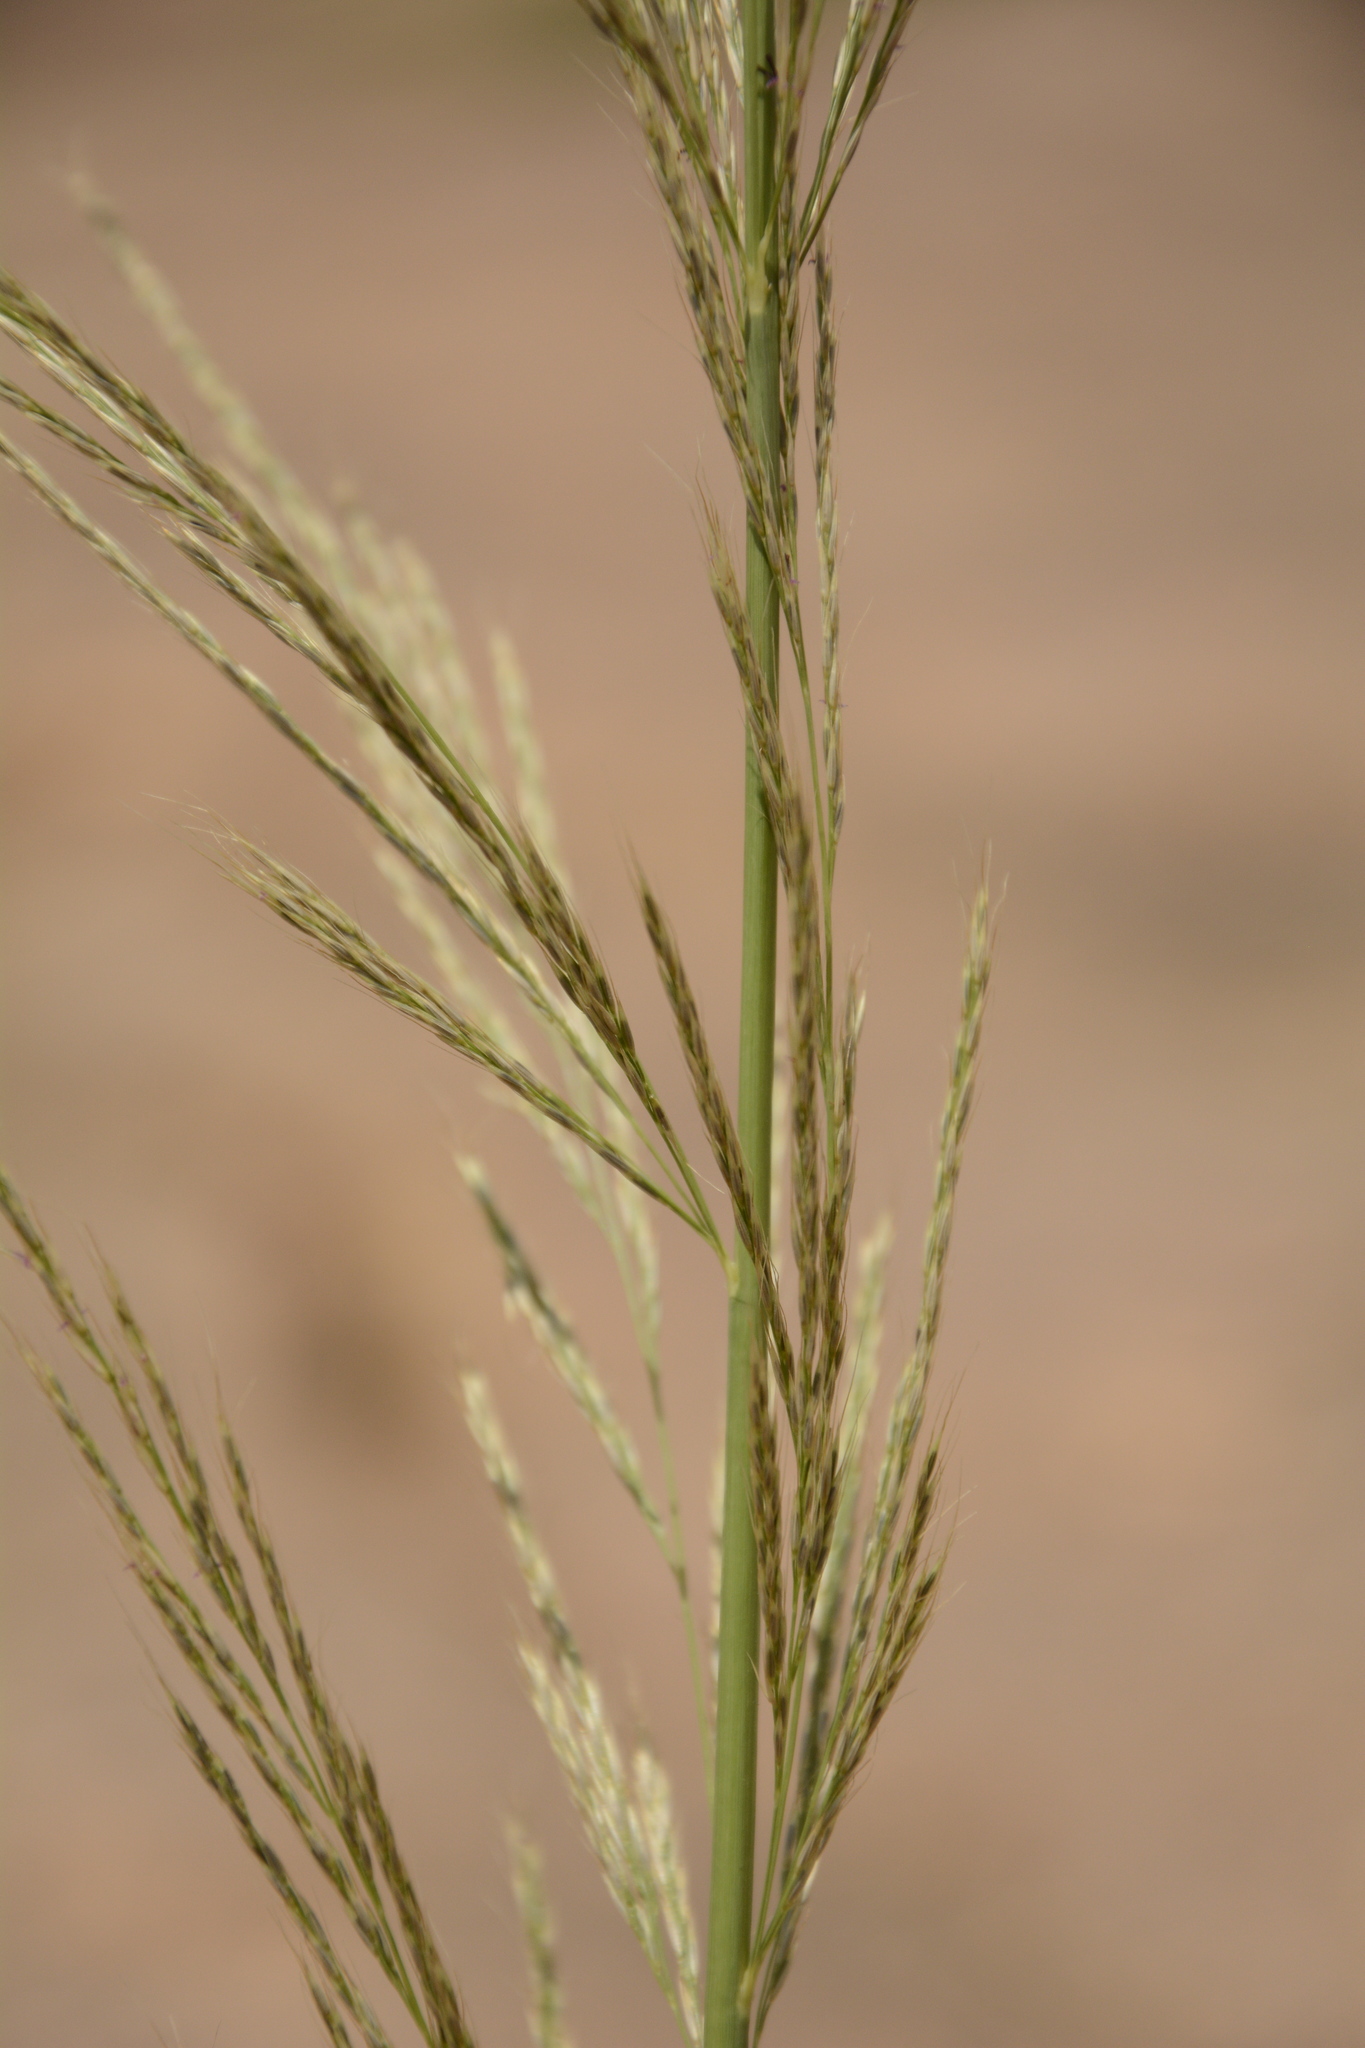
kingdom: Plantae
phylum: Tracheophyta
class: Liliopsida
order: Poales
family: Poaceae
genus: Garnotia
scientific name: Garnotia elata
